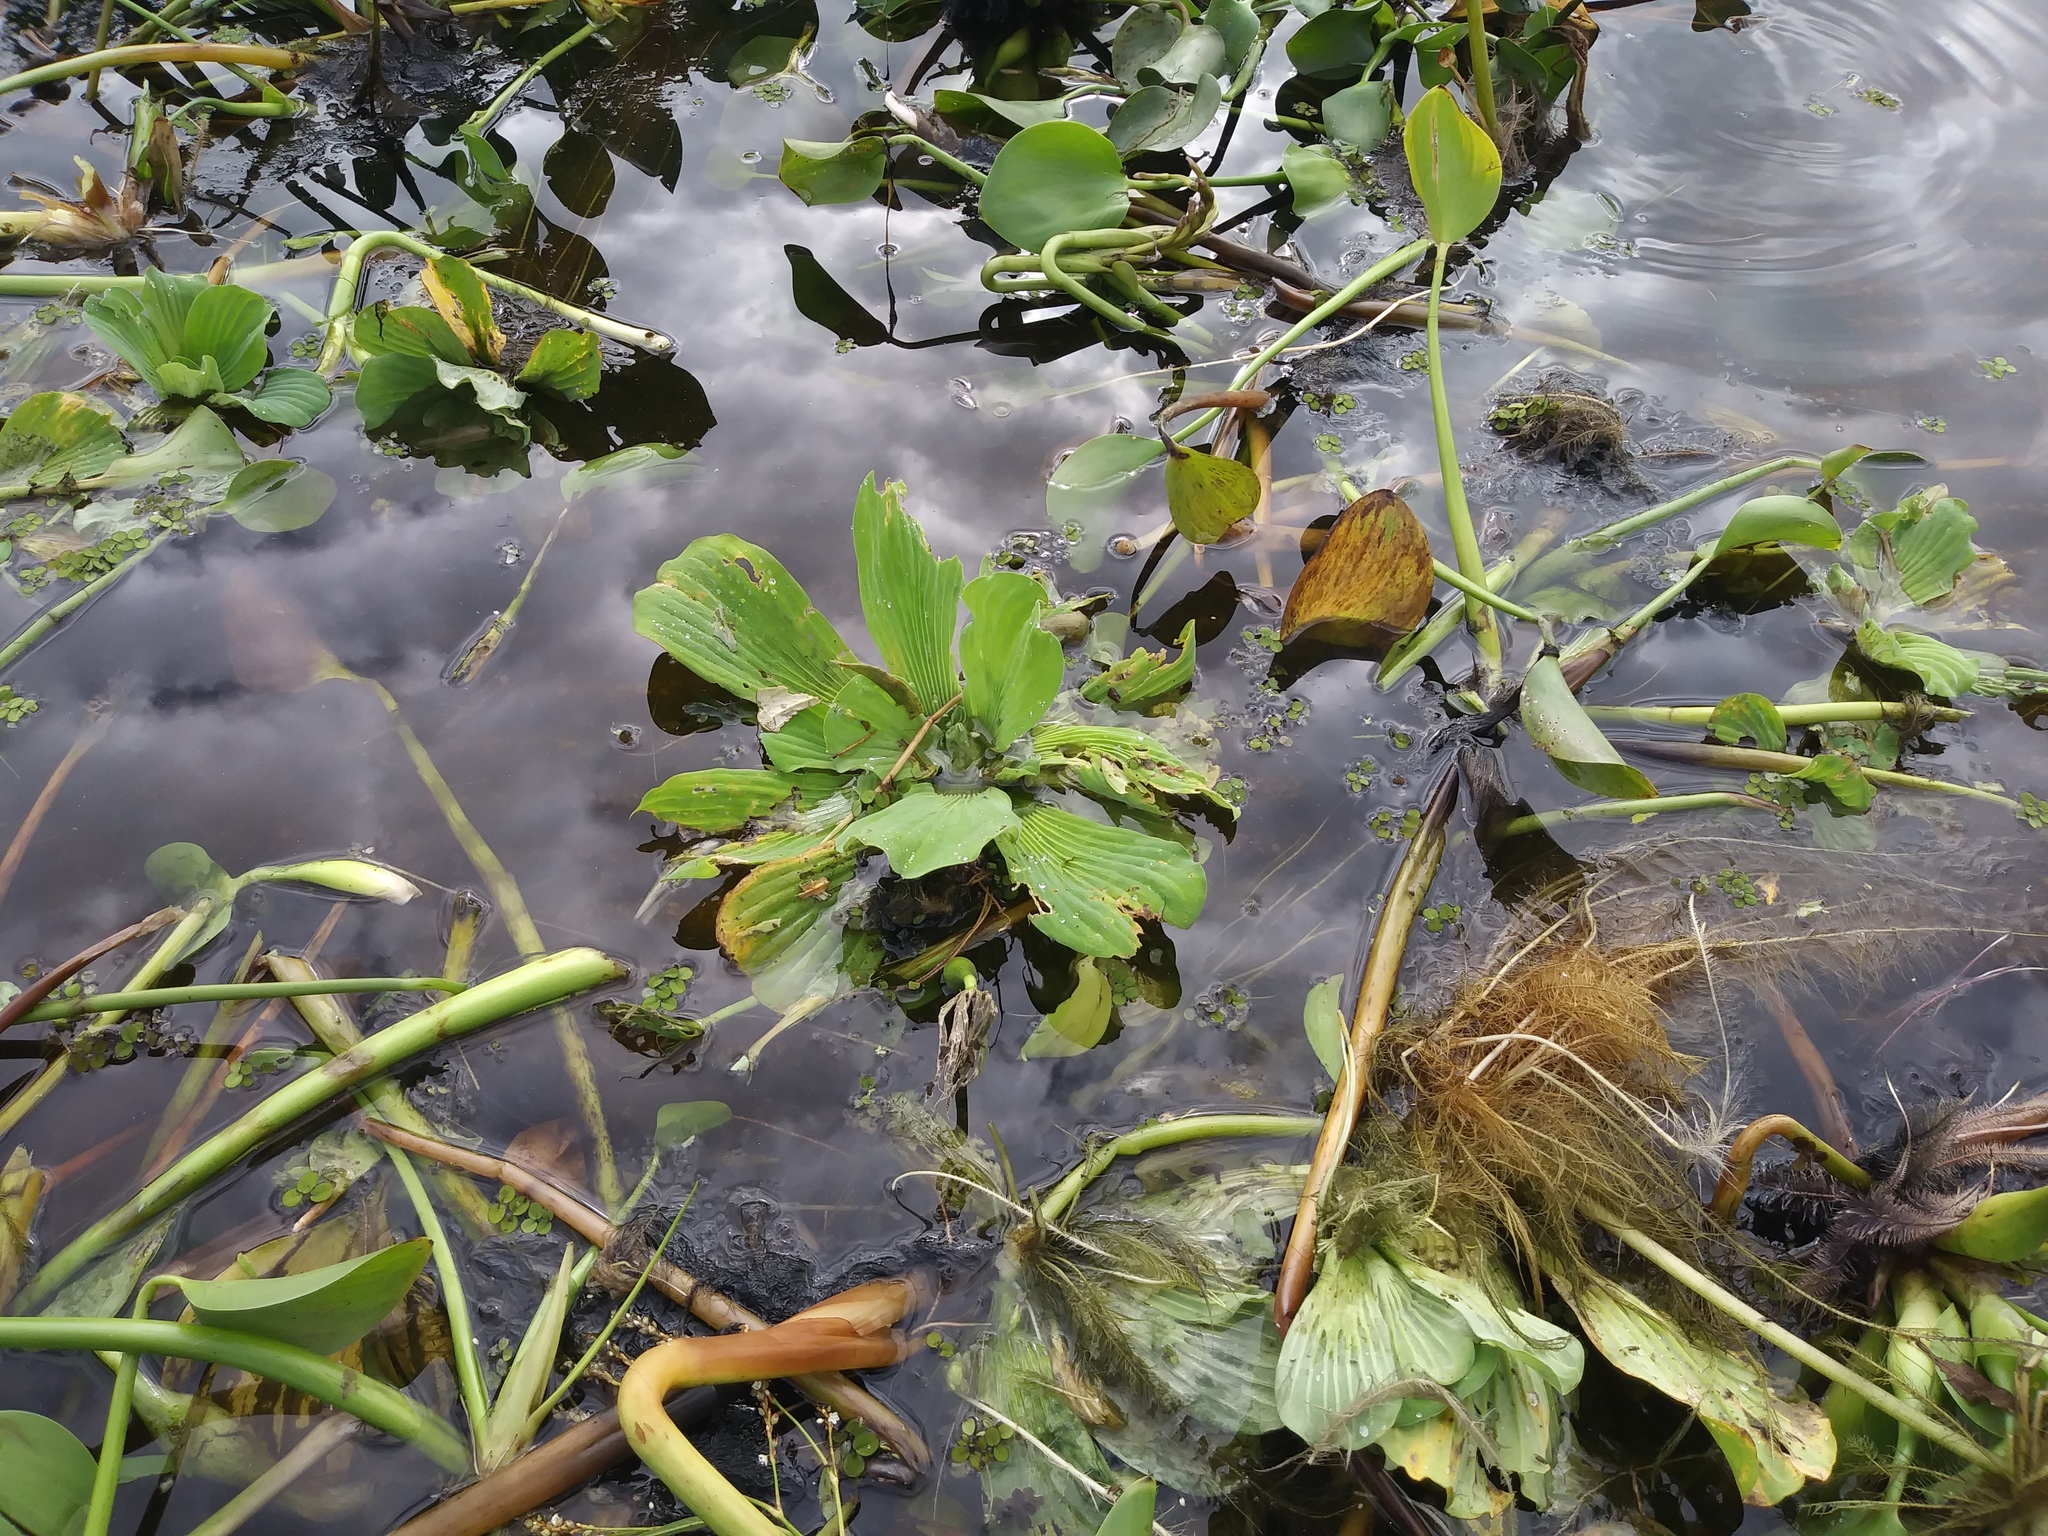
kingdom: Plantae
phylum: Tracheophyta
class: Liliopsida
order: Alismatales
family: Araceae
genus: Pistia
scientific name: Pistia stratiotes
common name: Water lettuce
